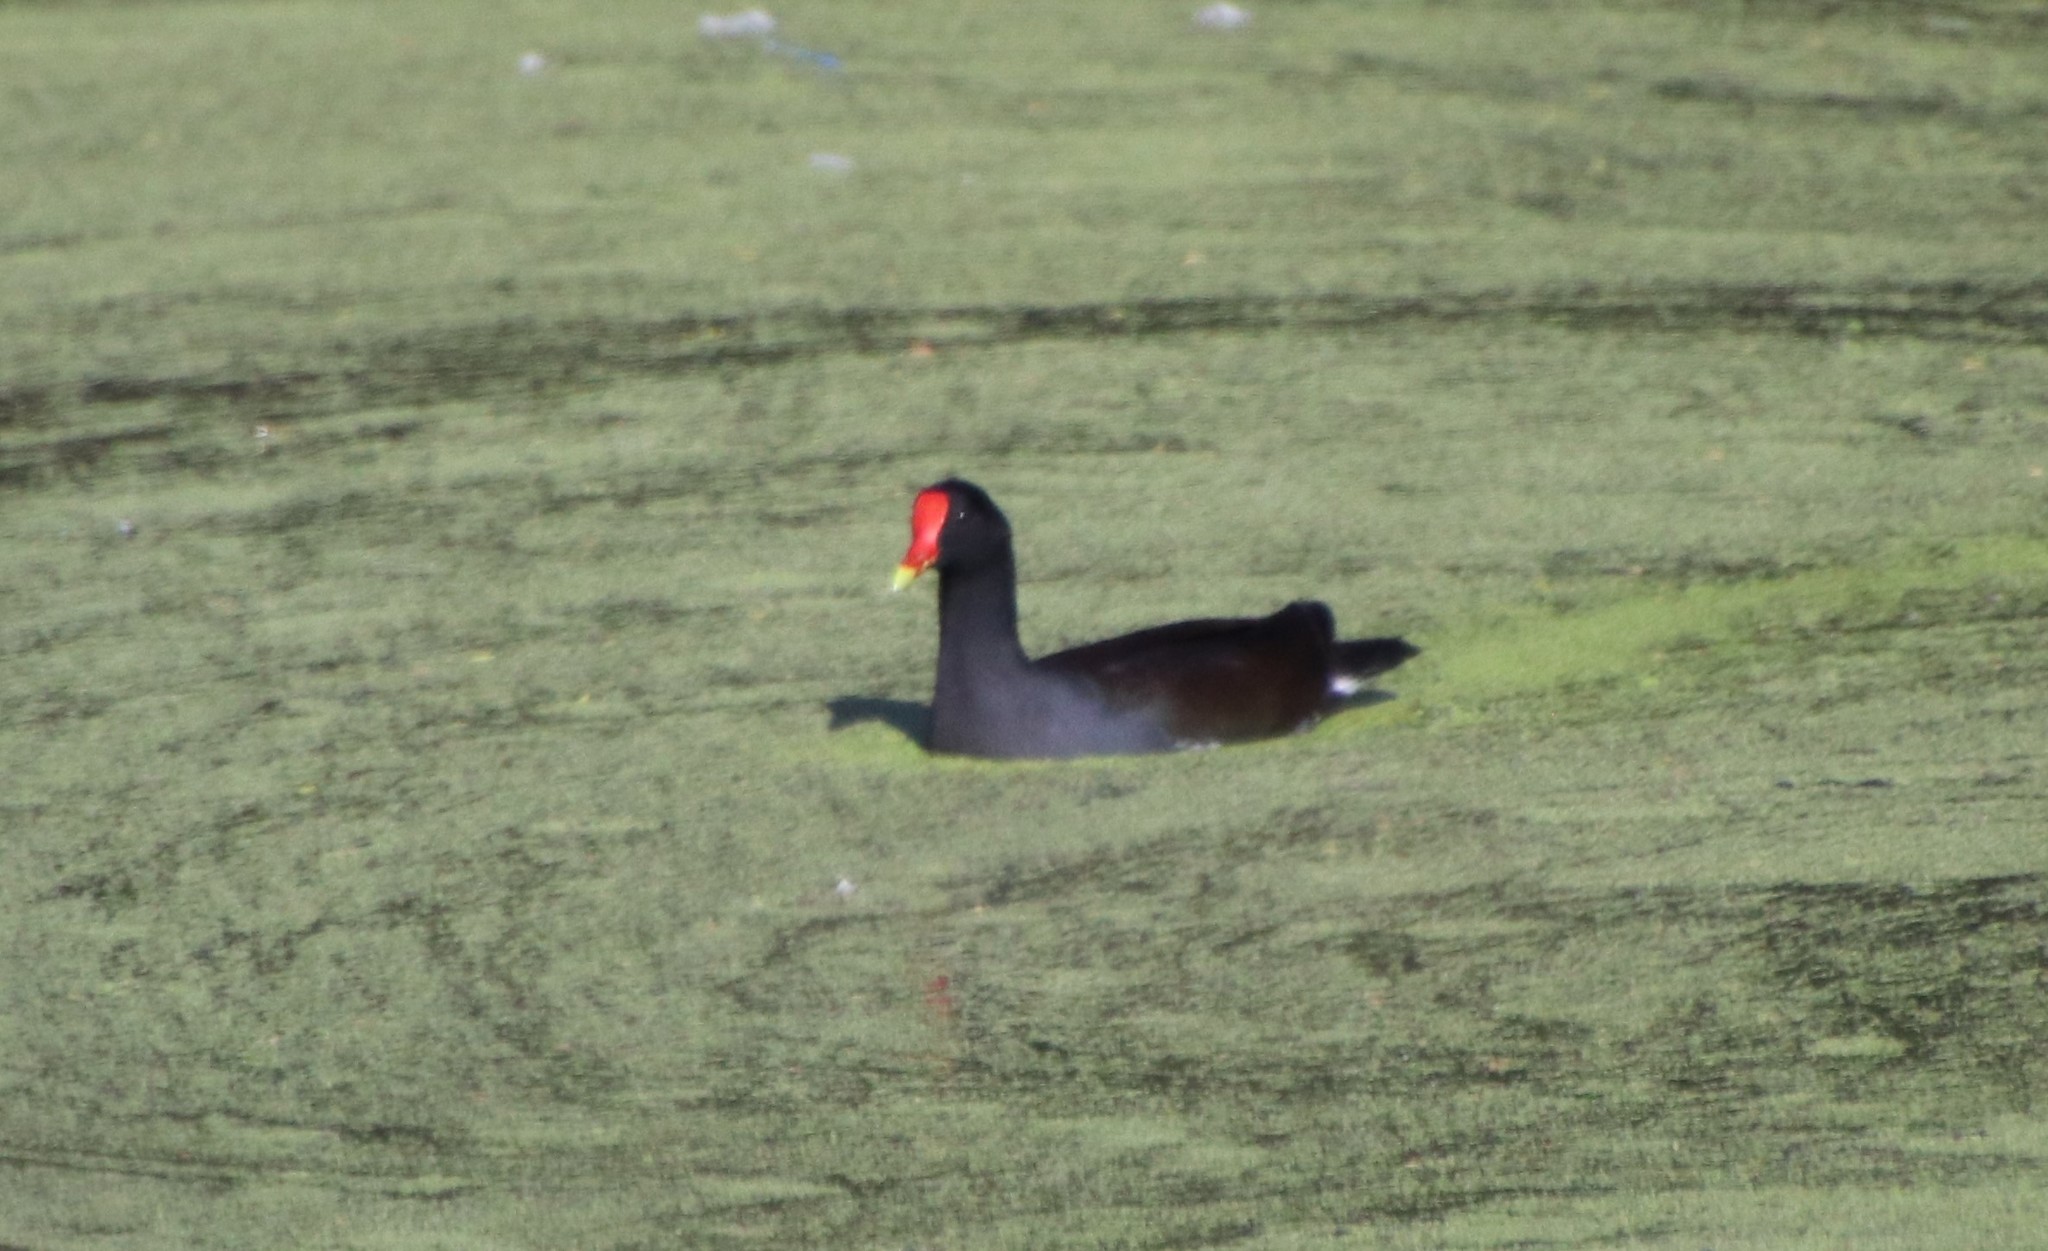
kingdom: Animalia
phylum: Chordata
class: Aves
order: Gruiformes
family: Rallidae
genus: Gallinula
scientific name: Gallinula chloropus
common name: Common moorhen
